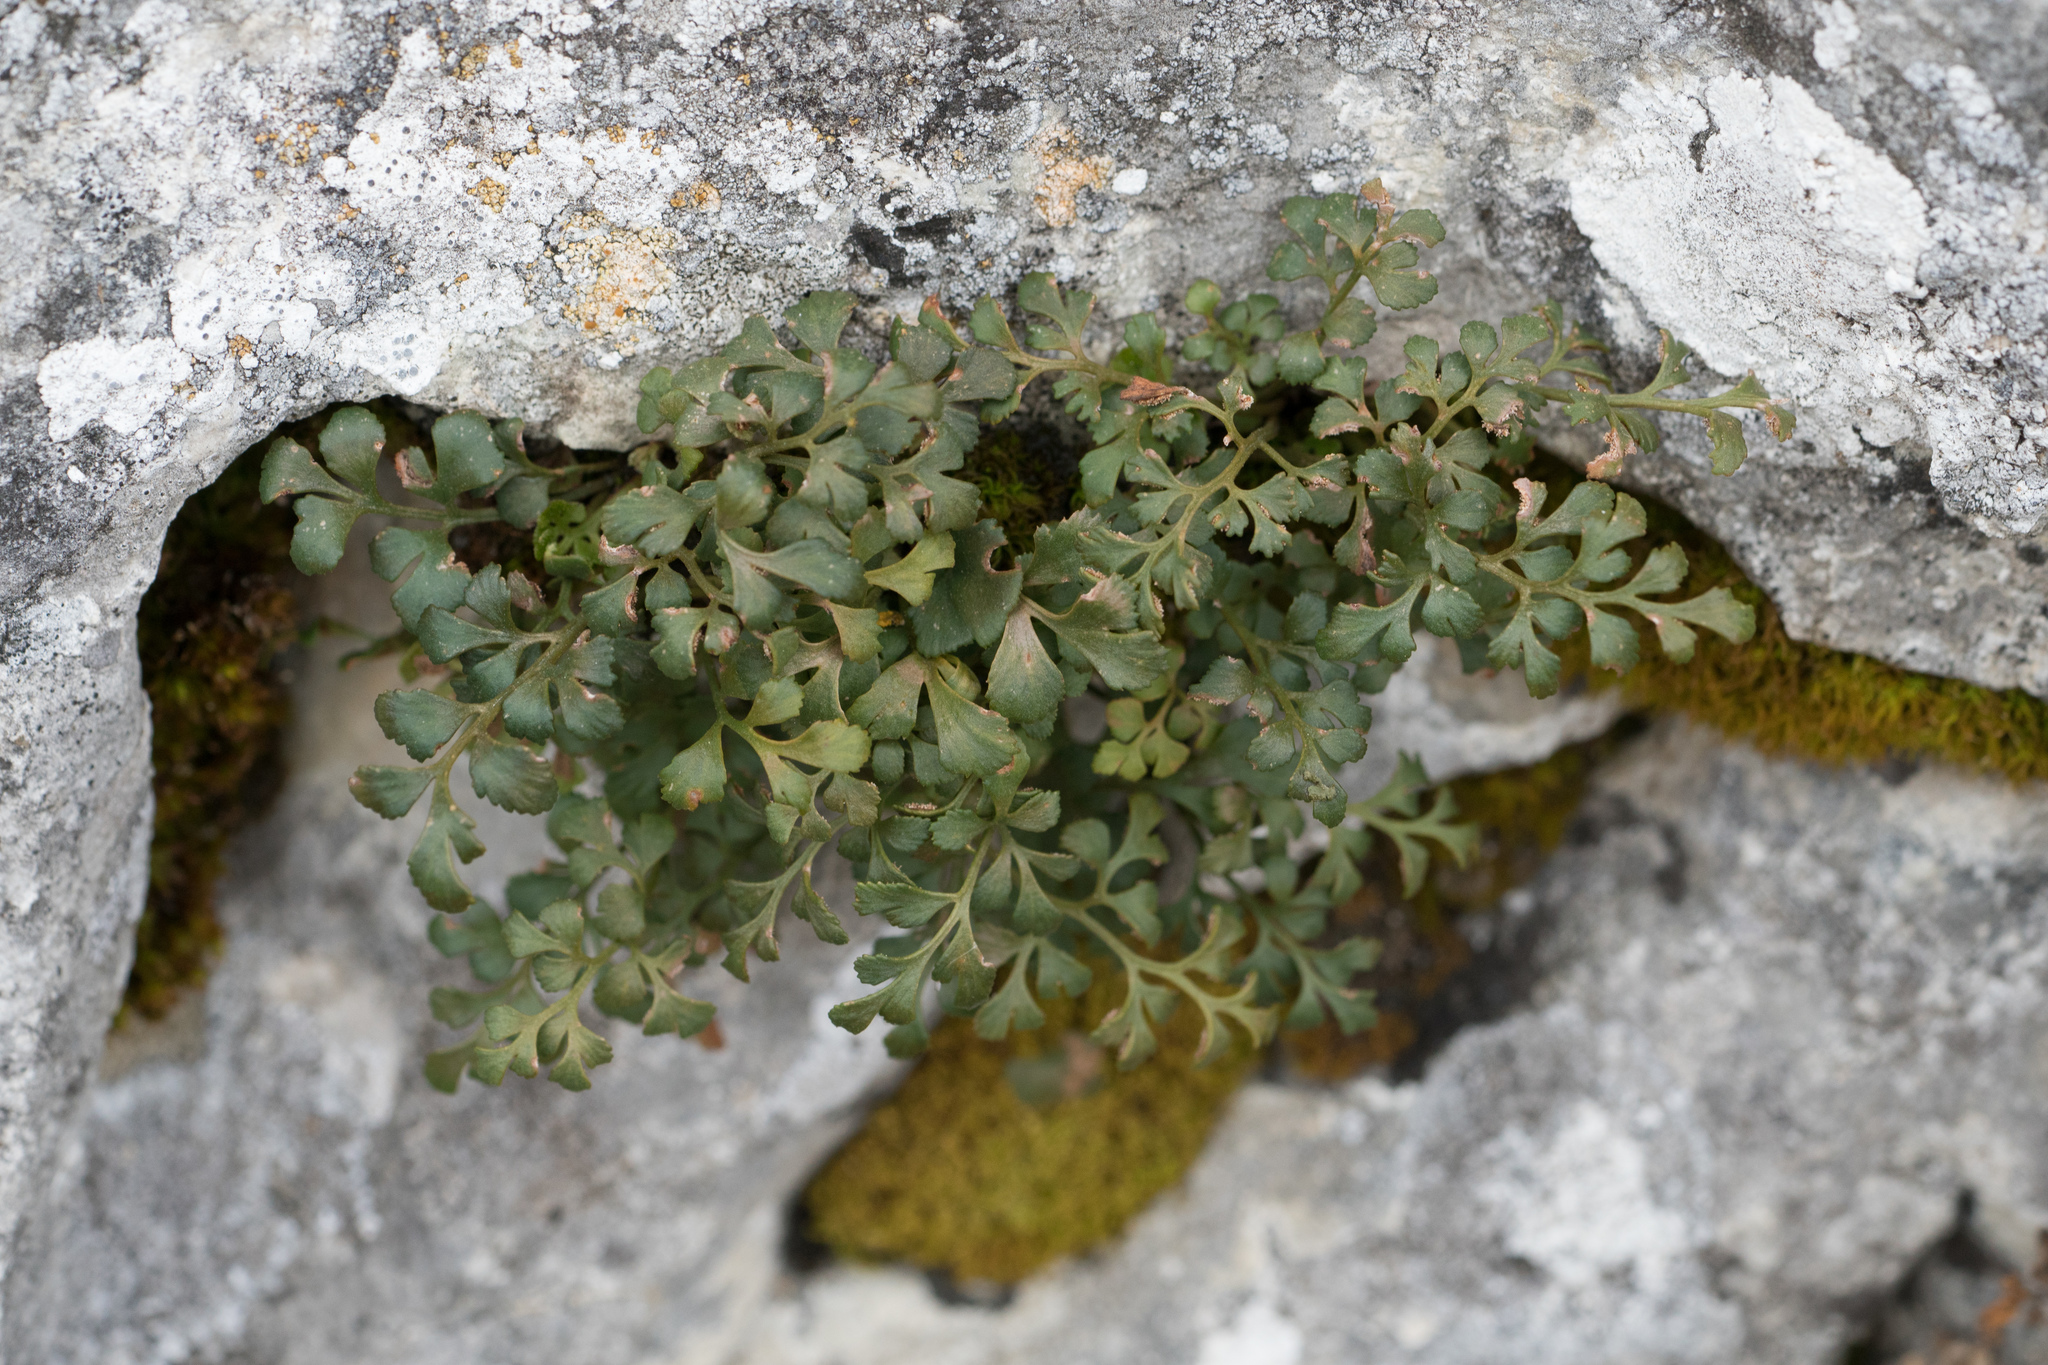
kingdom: Plantae
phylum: Tracheophyta
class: Polypodiopsida
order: Polypodiales
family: Aspleniaceae
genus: Asplenium
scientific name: Asplenium ruta-muraria
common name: Wall-rue
